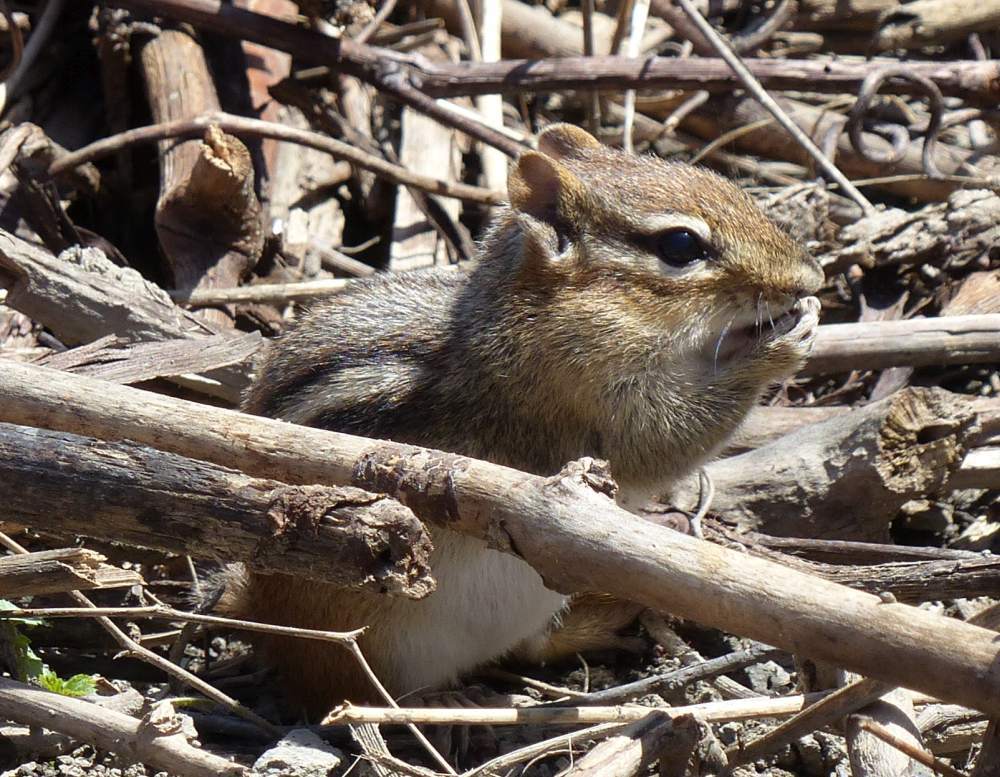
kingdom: Animalia
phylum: Chordata
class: Mammalia
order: Rodentia
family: Sciuridae
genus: Tamias
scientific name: Tamias striatus
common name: Eastern chipmunk
